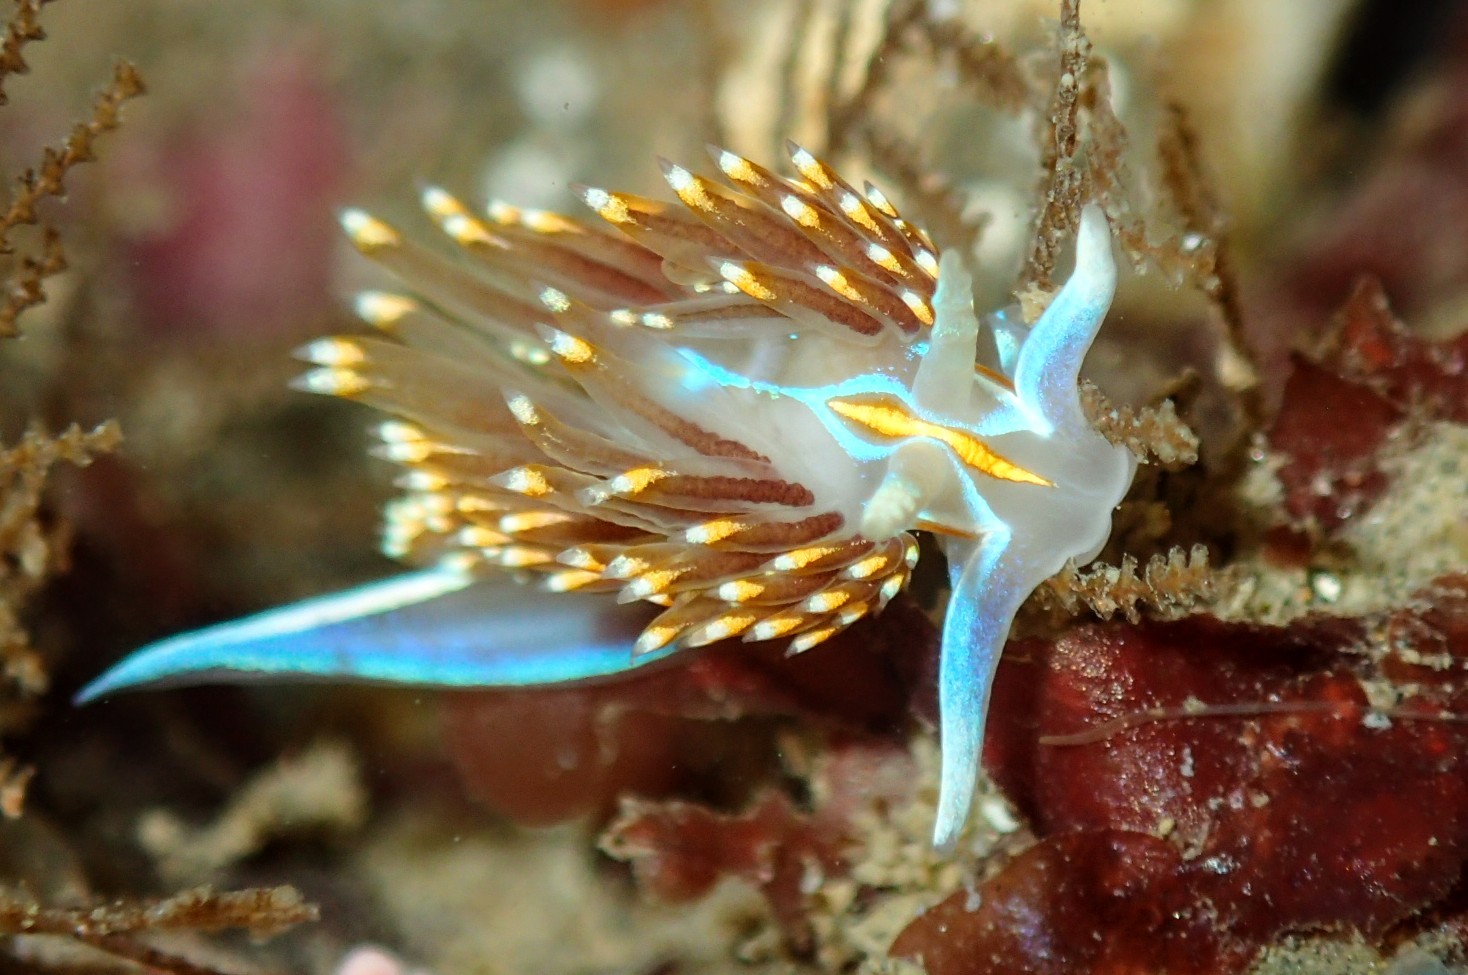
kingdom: Animalia
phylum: Mollusca
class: Gastropoda
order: Nudibranchia
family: Myrrhinidae
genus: Hermissenda
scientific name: Hermissenda opalescens
